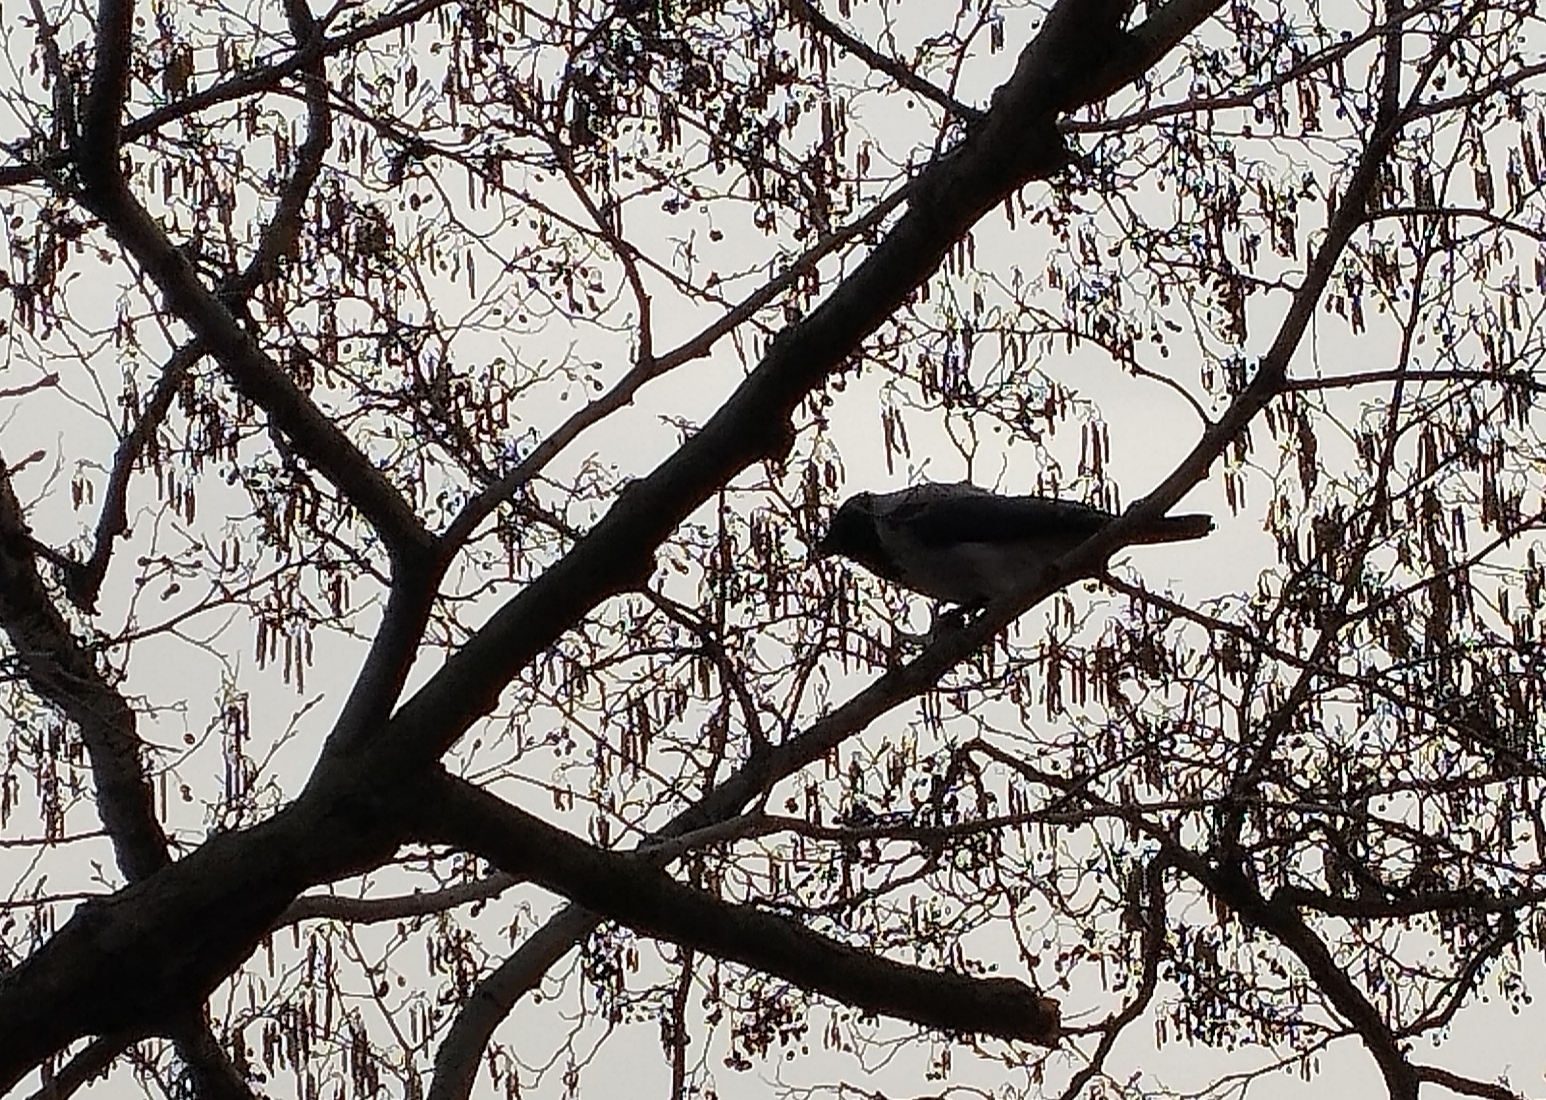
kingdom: Animalia
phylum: Chordata
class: Aves
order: Passeriformes
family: Corvidae
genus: Corvus
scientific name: Corvus cornix
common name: Hooded crow
